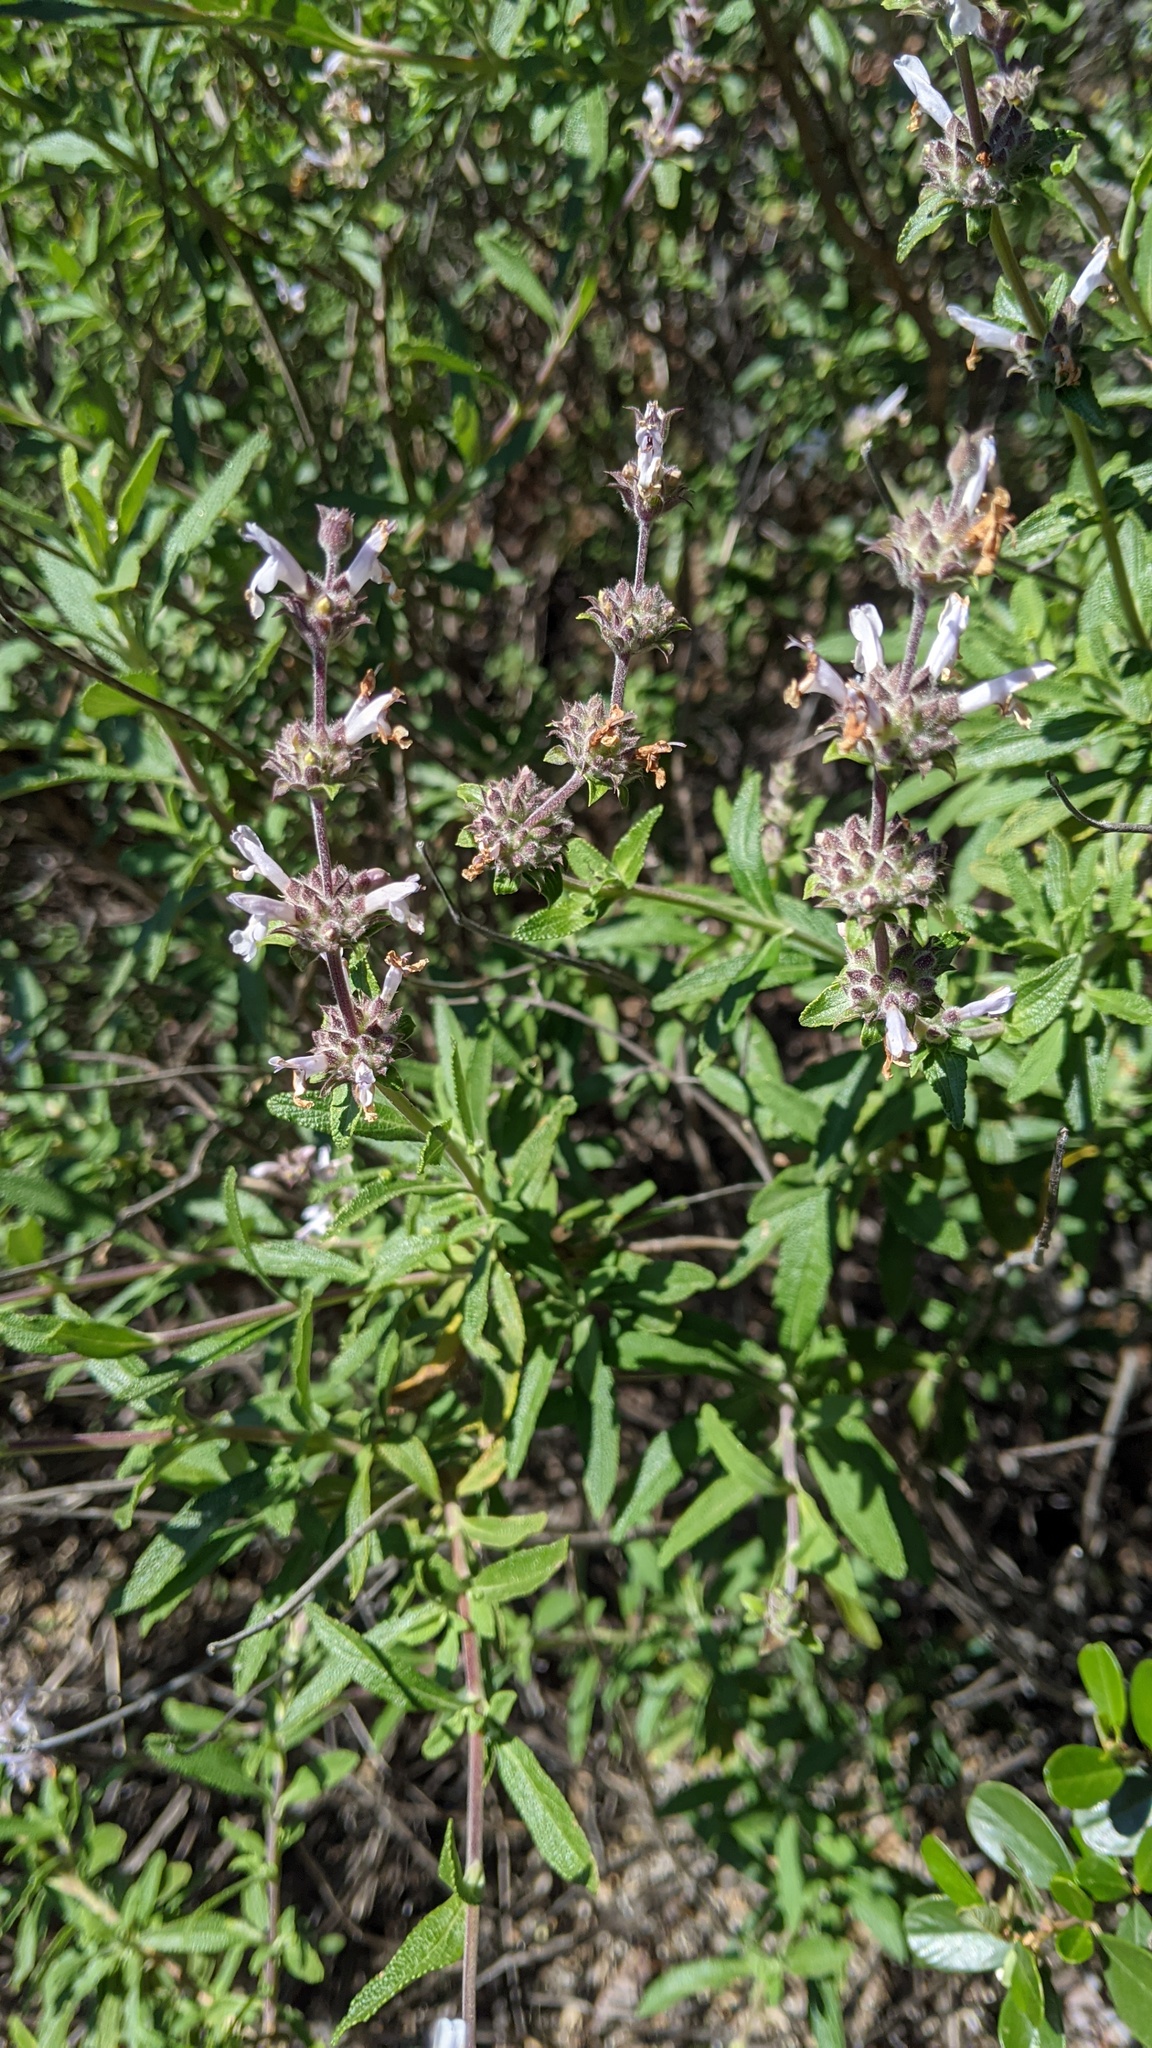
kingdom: Plantae
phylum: Tracheophyta
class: Magnoliopsida
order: Lamiales
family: Lamiaceae
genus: Salvia
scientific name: Salvia mellifera
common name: Black sage
